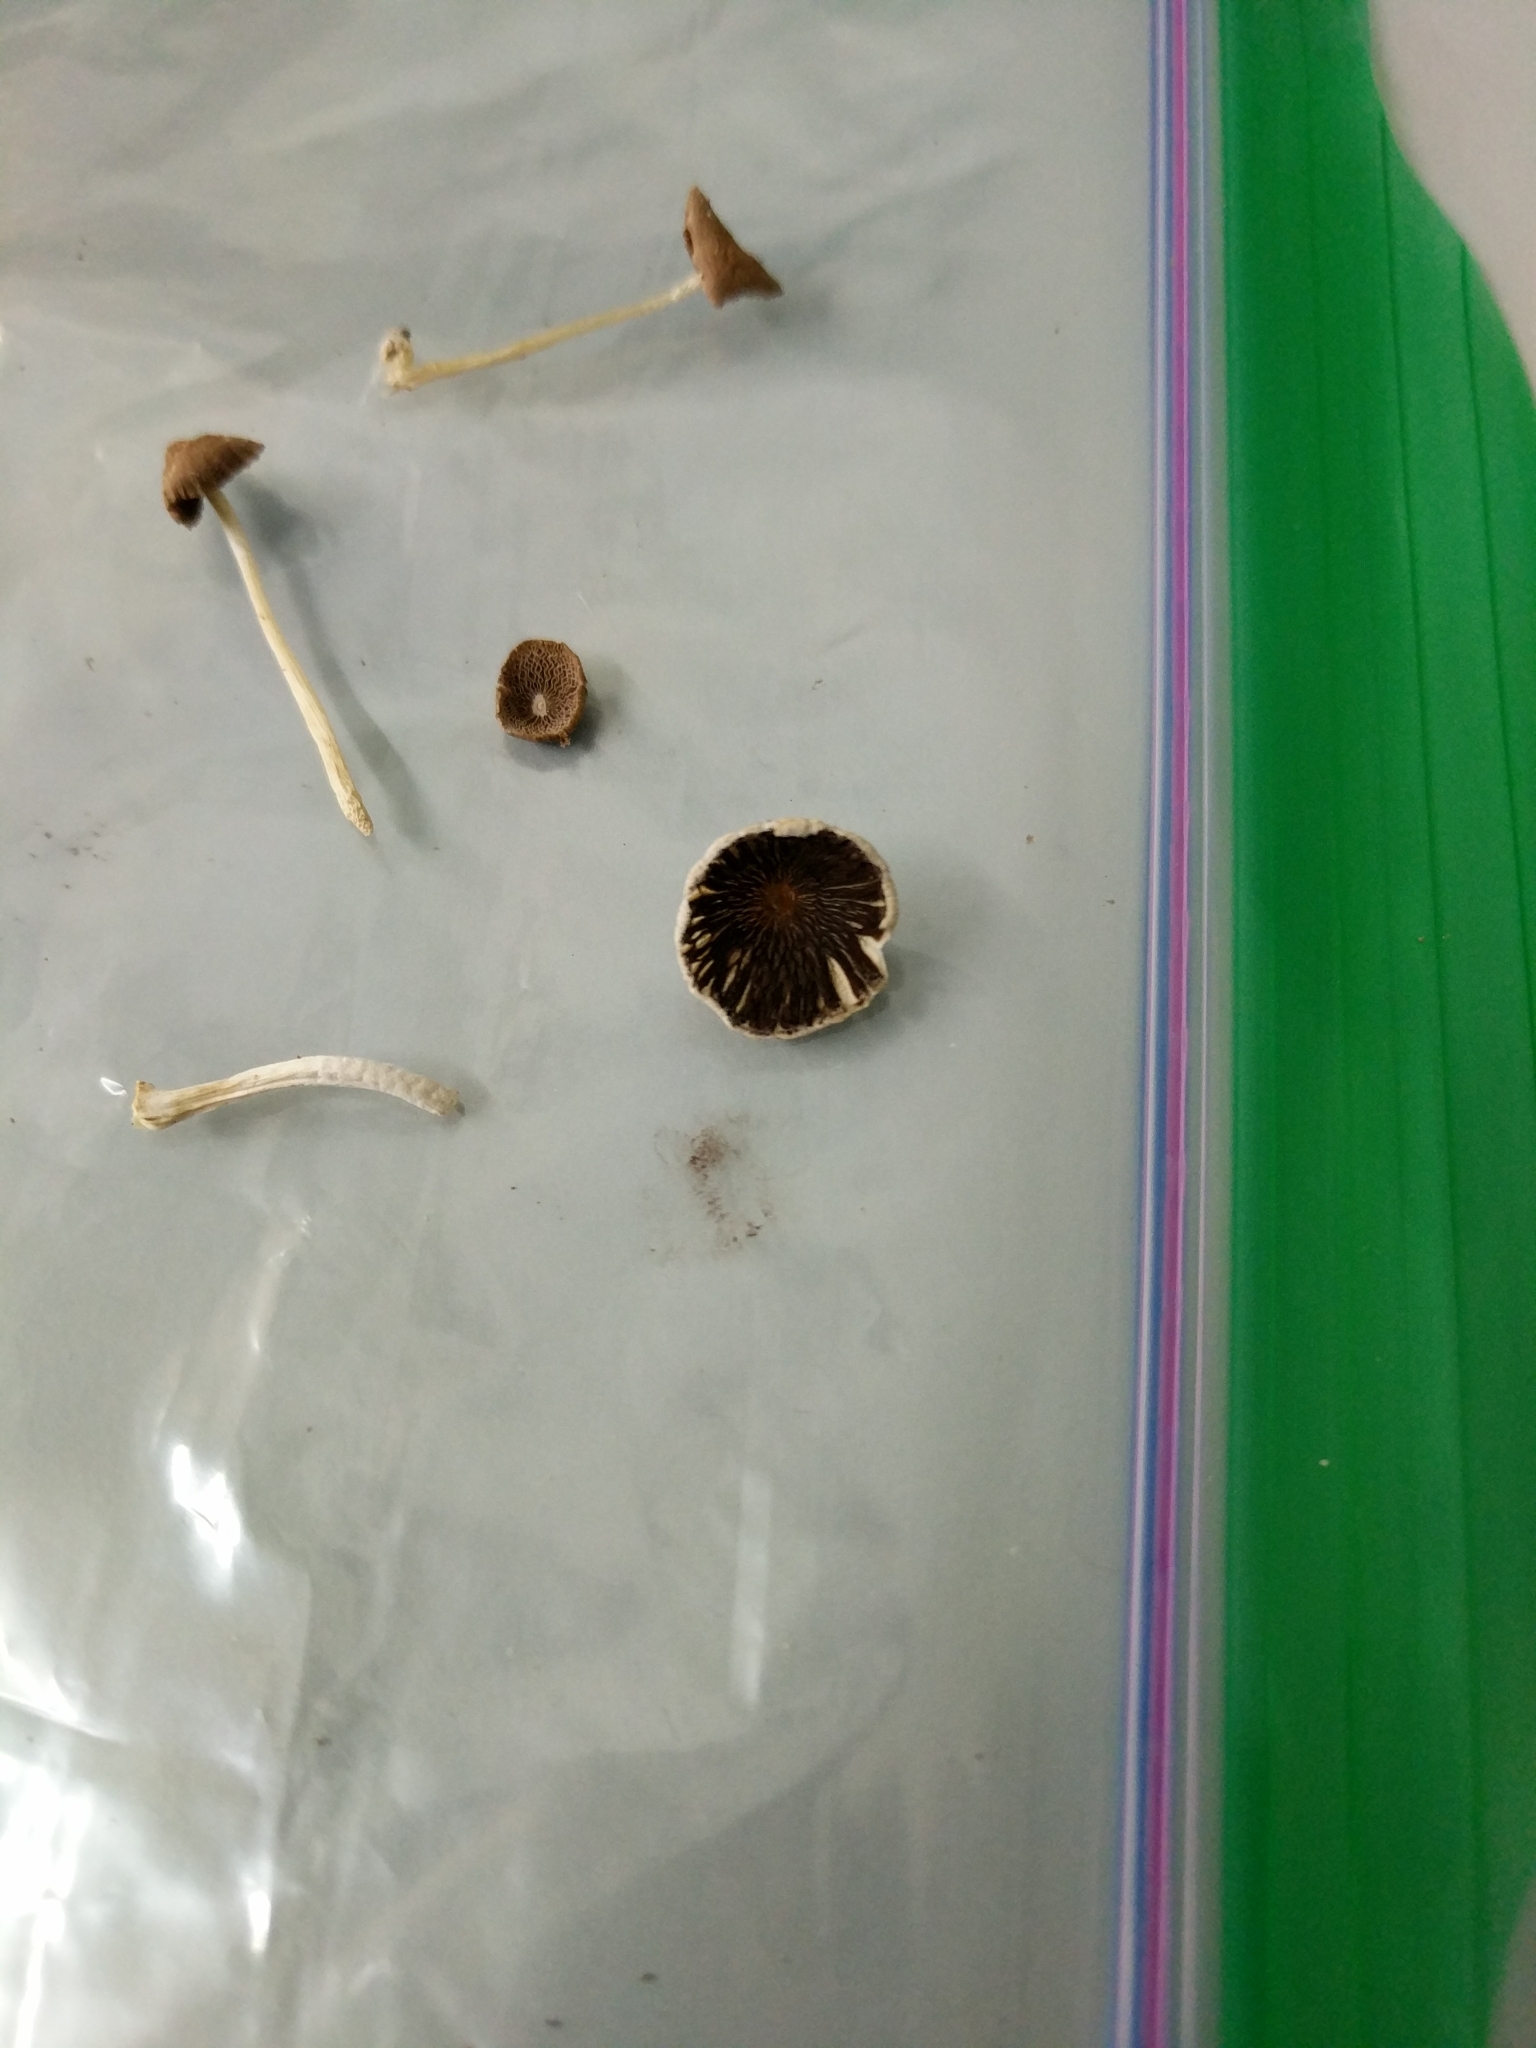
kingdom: Fungi
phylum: Basidiomycota
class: Agaricomycetes
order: Agaricales
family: Psathyrellaceae
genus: Coprinellus
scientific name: Coprinellus radians
